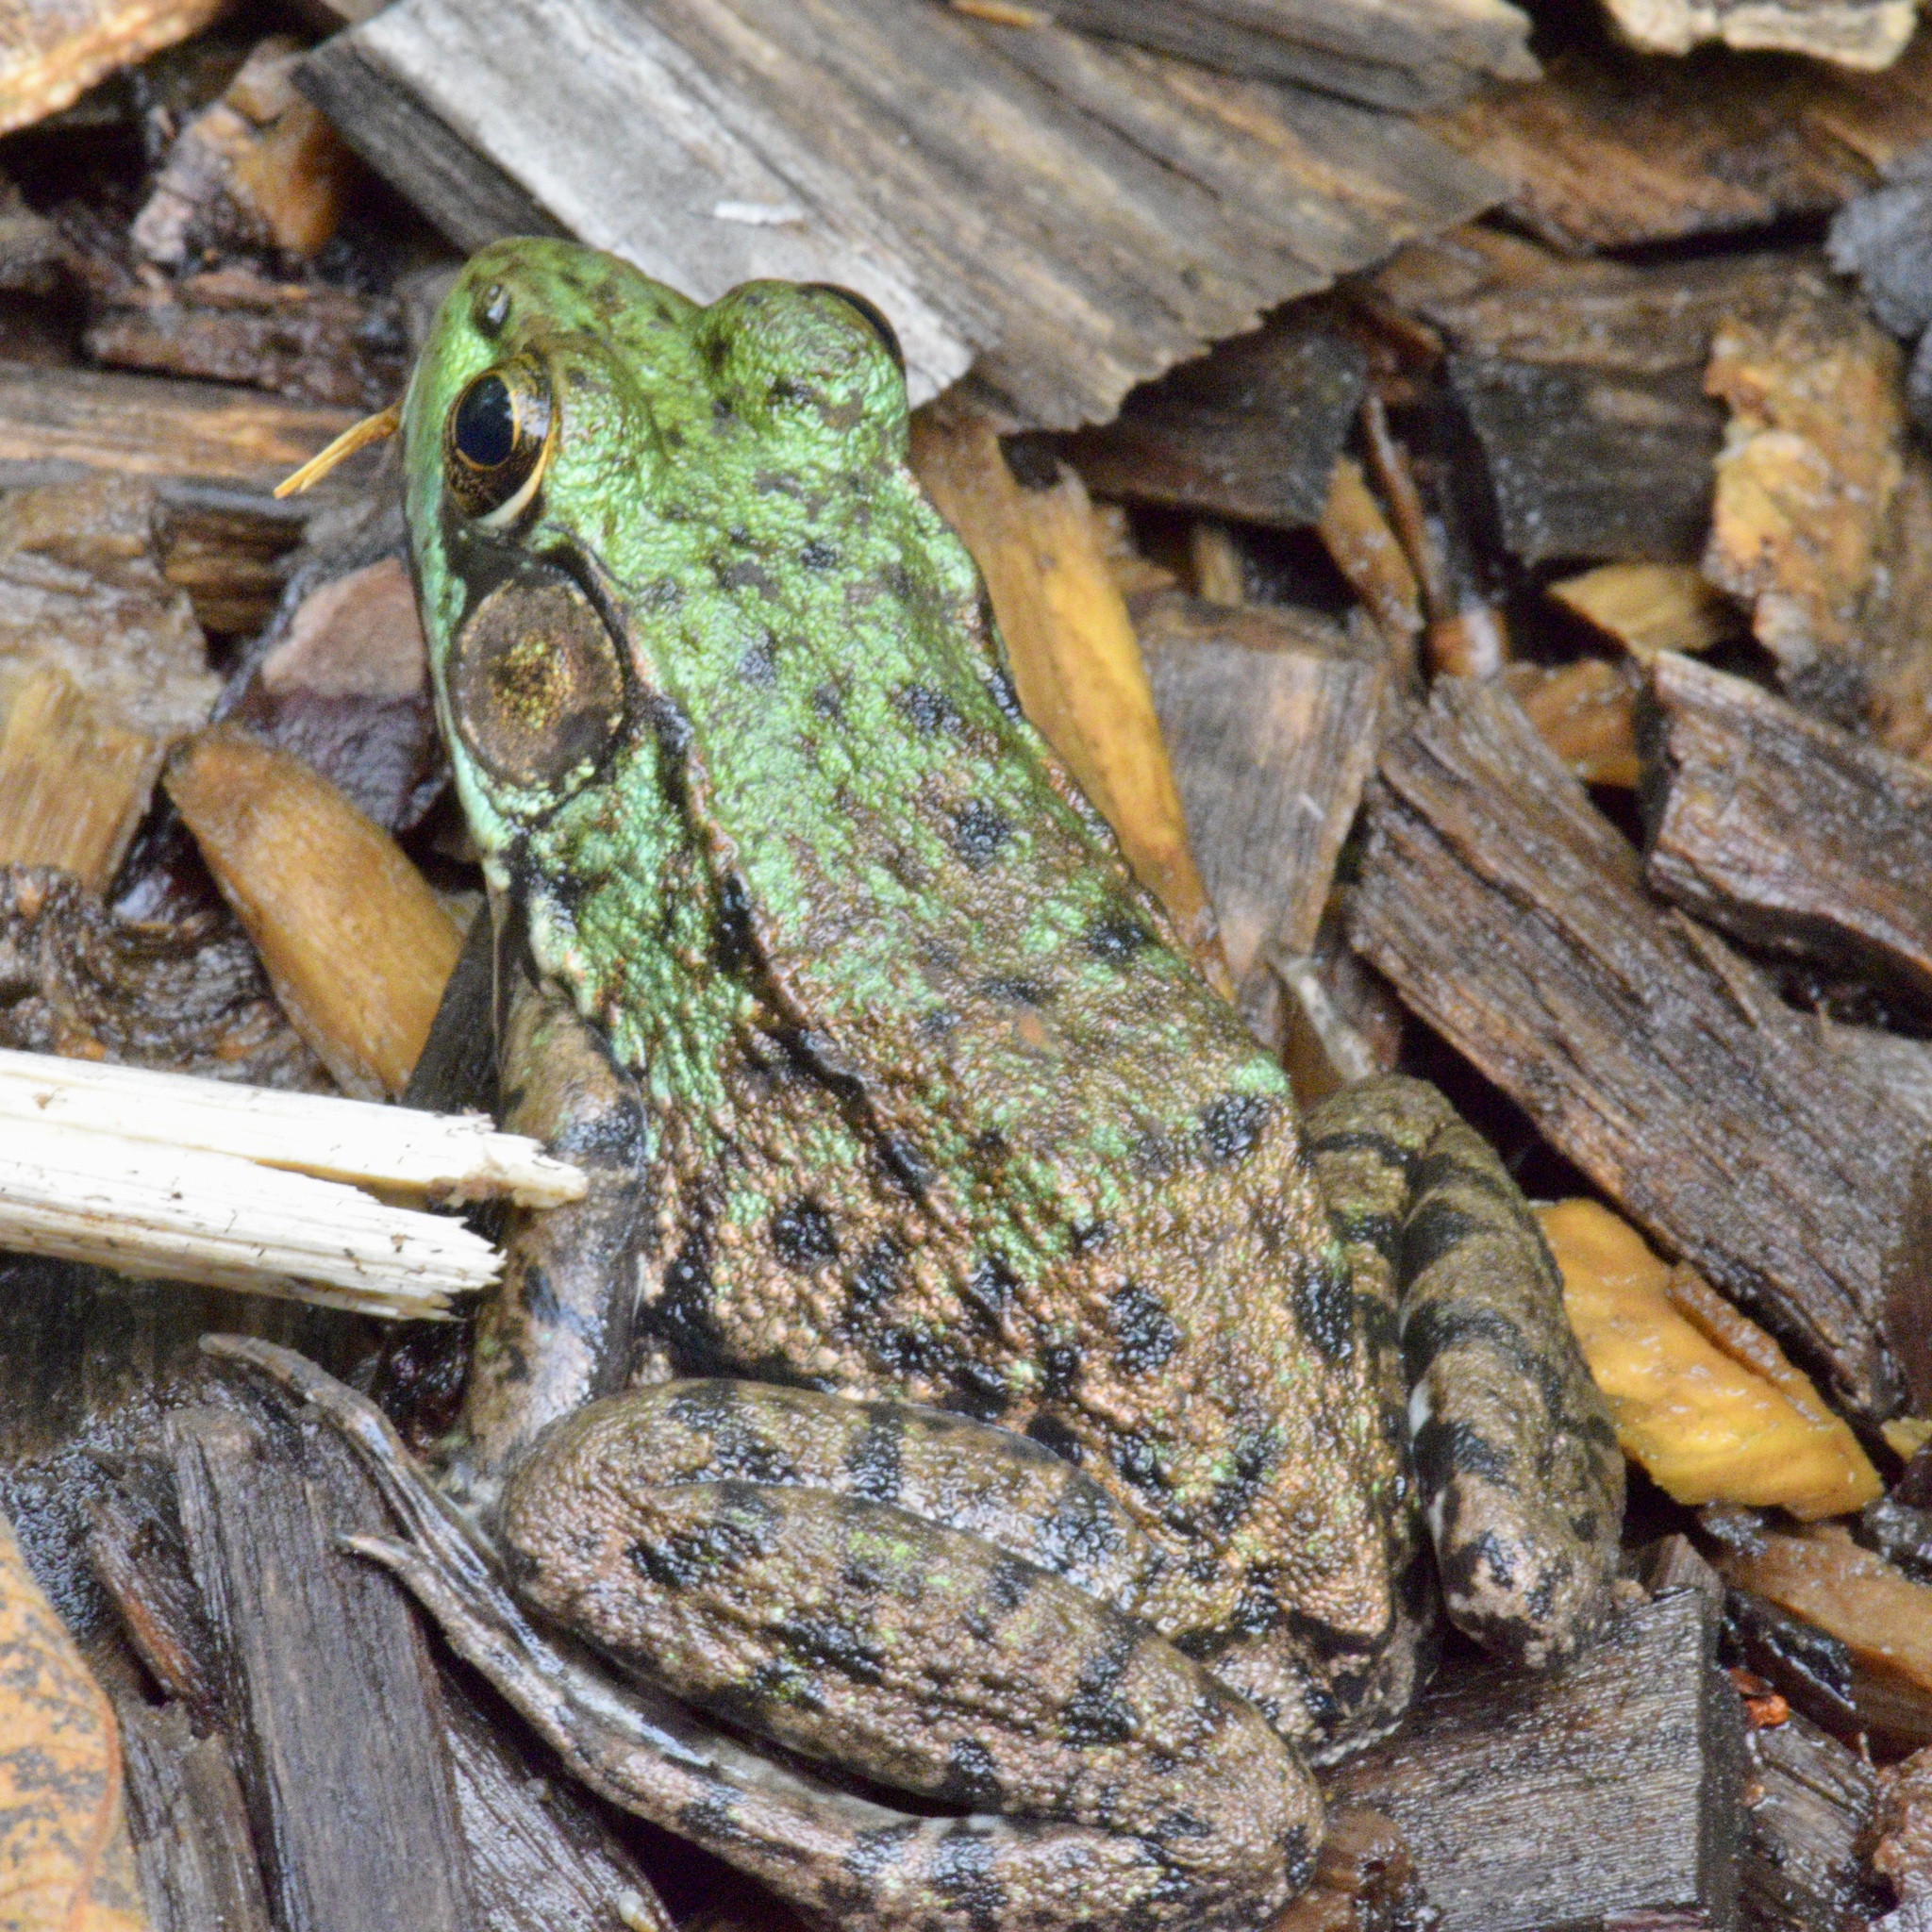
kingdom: Animalia
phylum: Chordata
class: Amphibia
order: Anura
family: Ranidae
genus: Lithobates
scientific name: Lithobates clamitans
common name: Green frog
